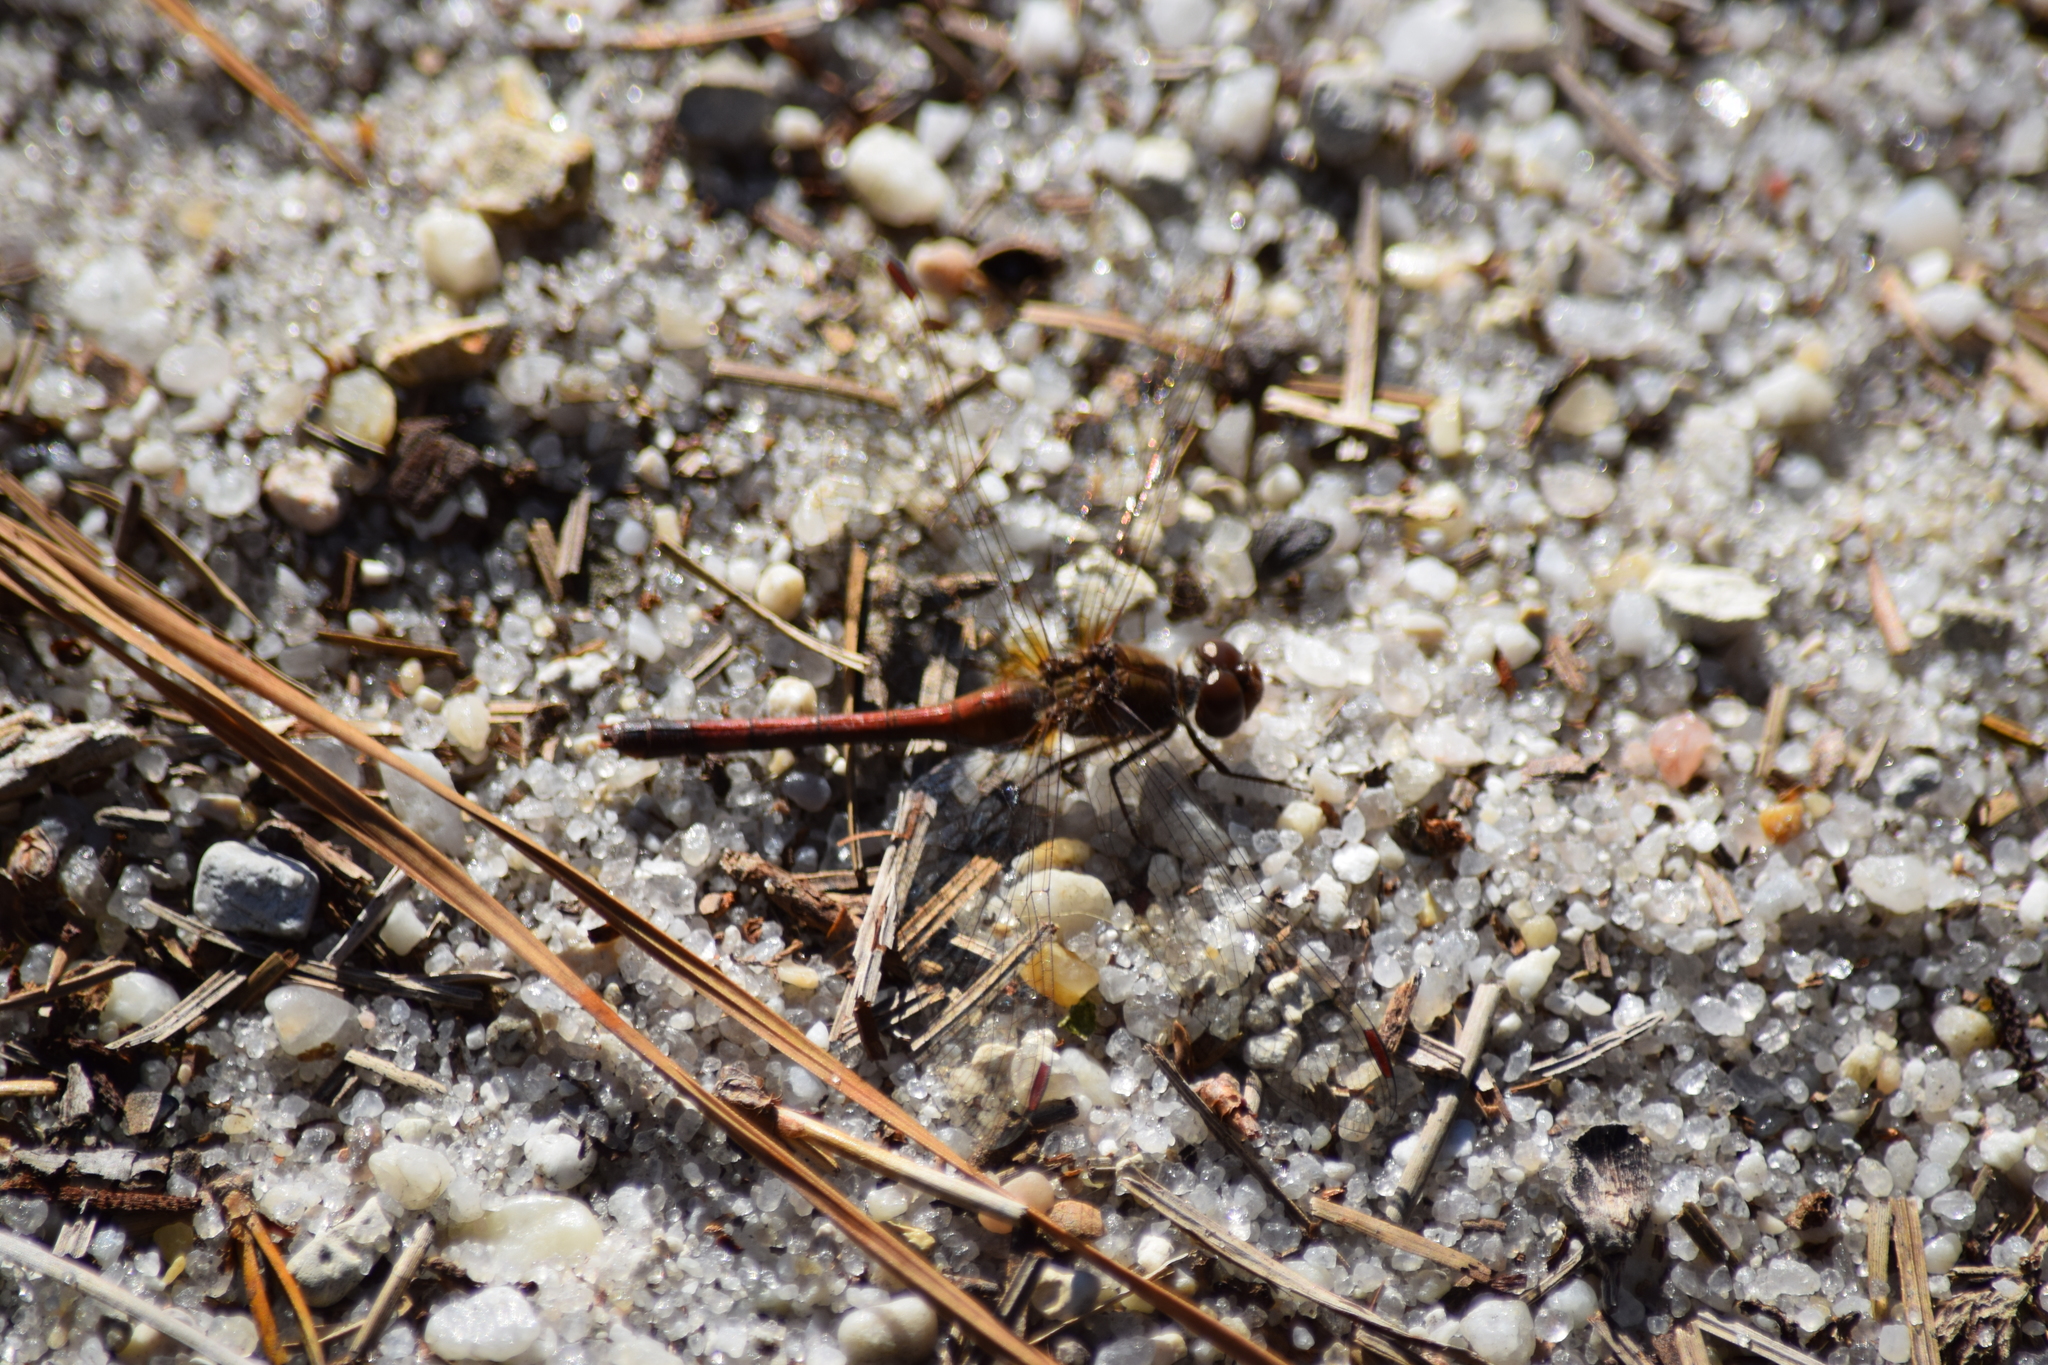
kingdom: Animalia
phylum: Arthropoda
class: Insecta
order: Odonata
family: Libellulidae
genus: Sympetrum
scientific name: Sympetrum vicinum
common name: Autumn meadowhawk
